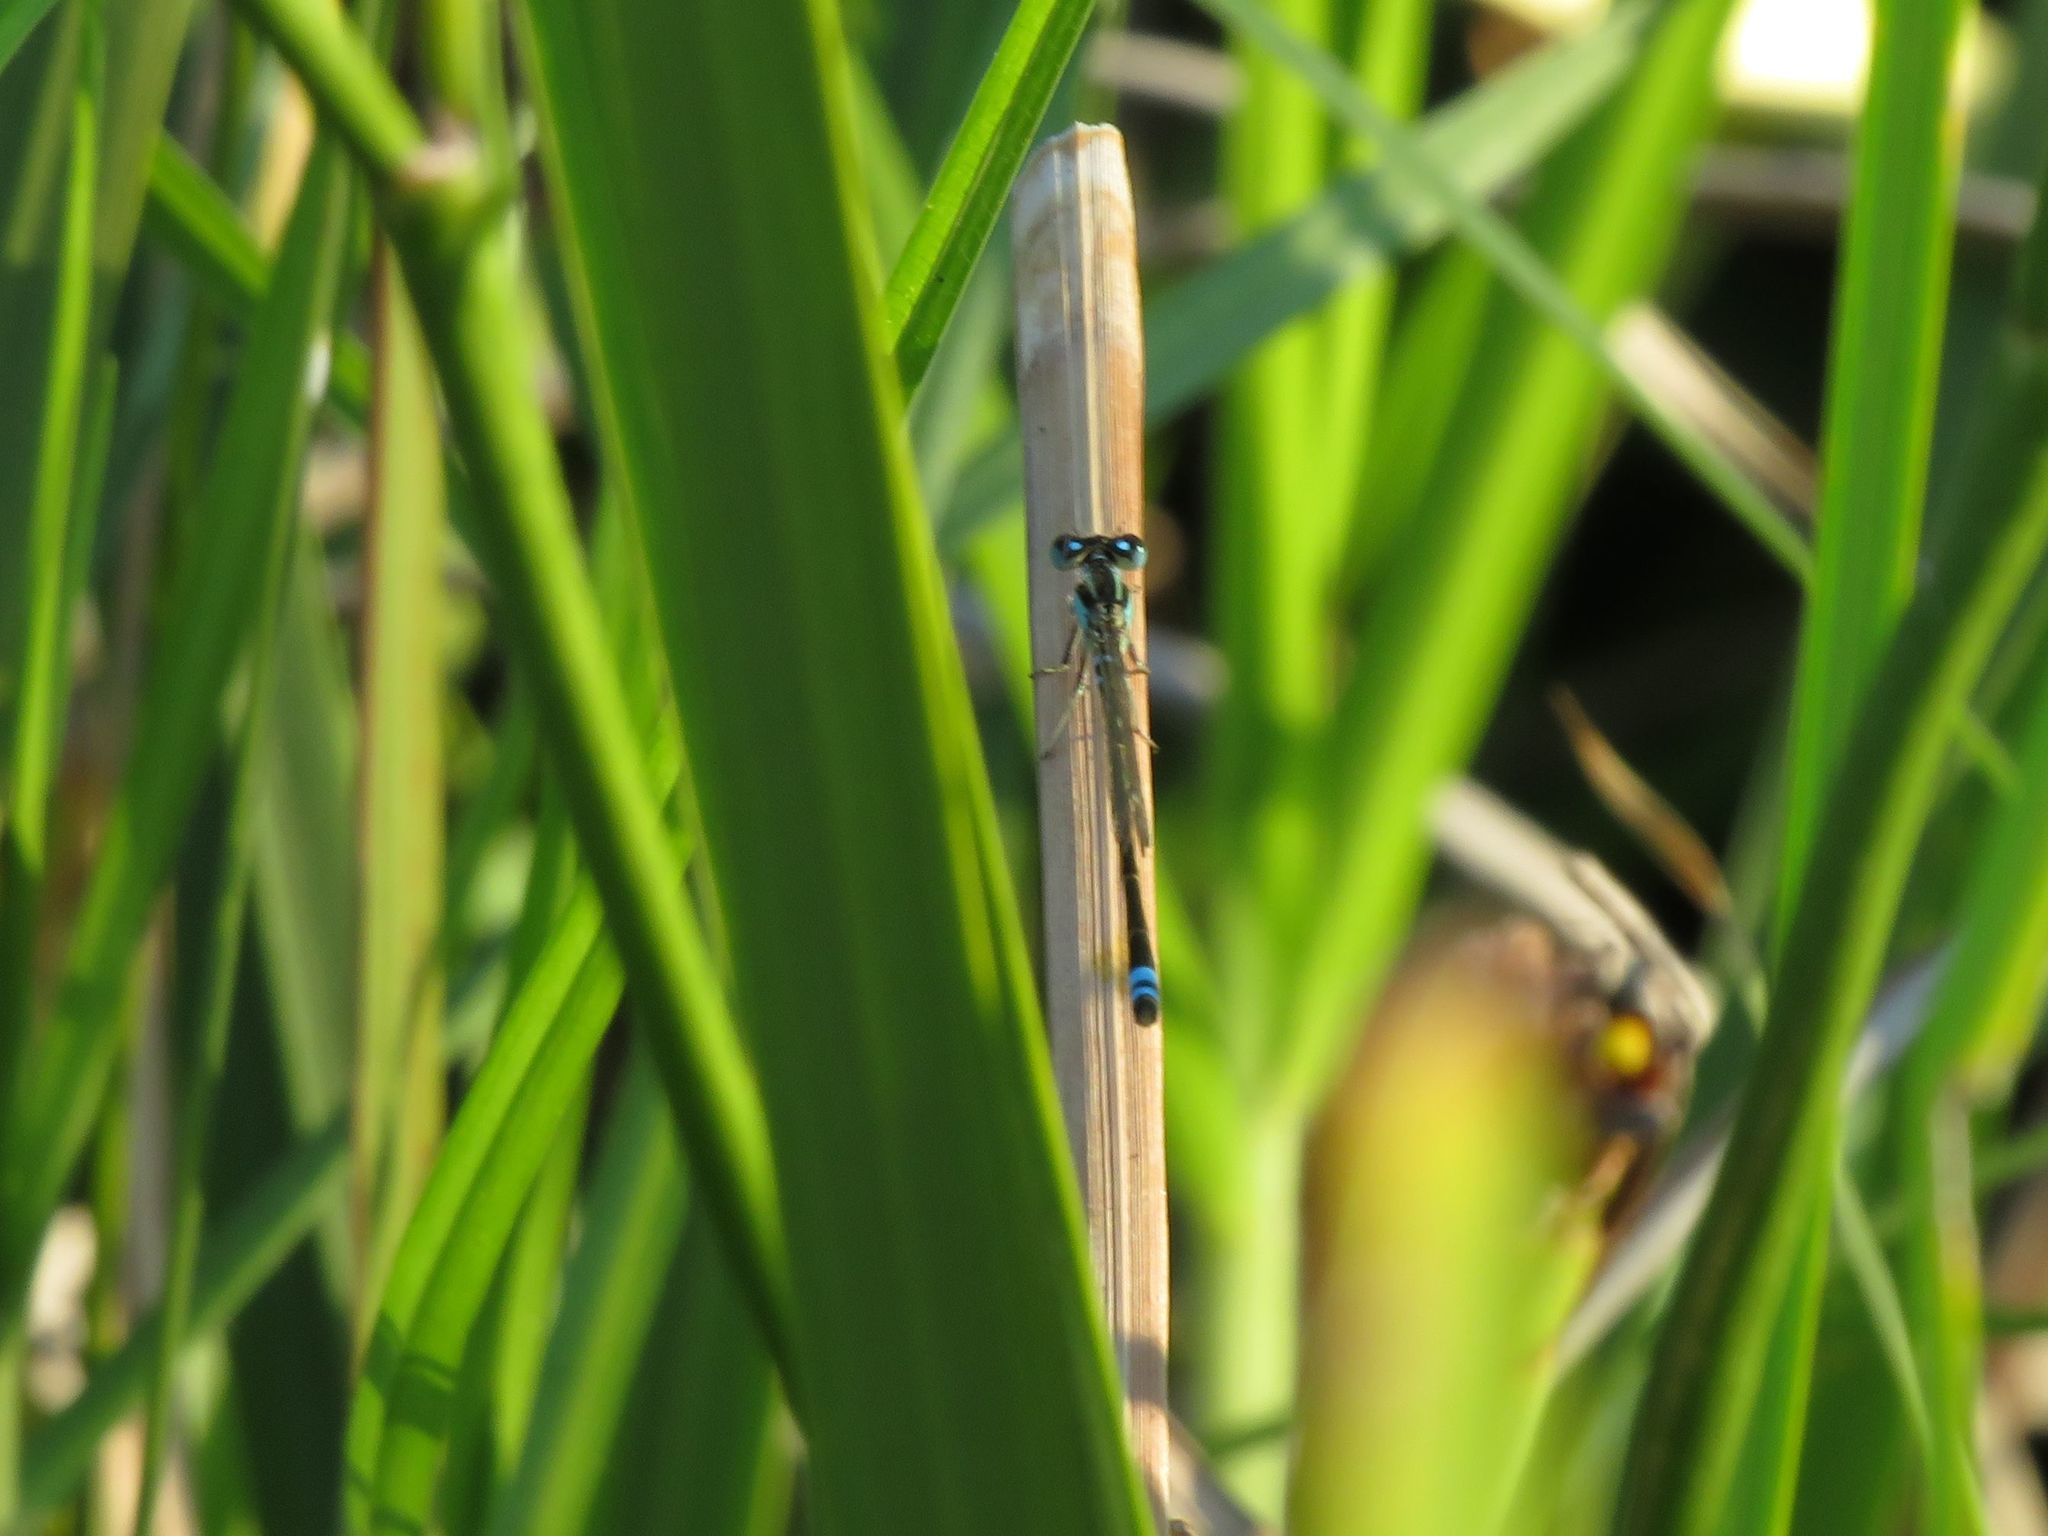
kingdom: Animalia
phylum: Arthropoda
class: Insecta
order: Odonata
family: Coenagrionidae
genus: Ischnura
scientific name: Ischnura fluviatilis
